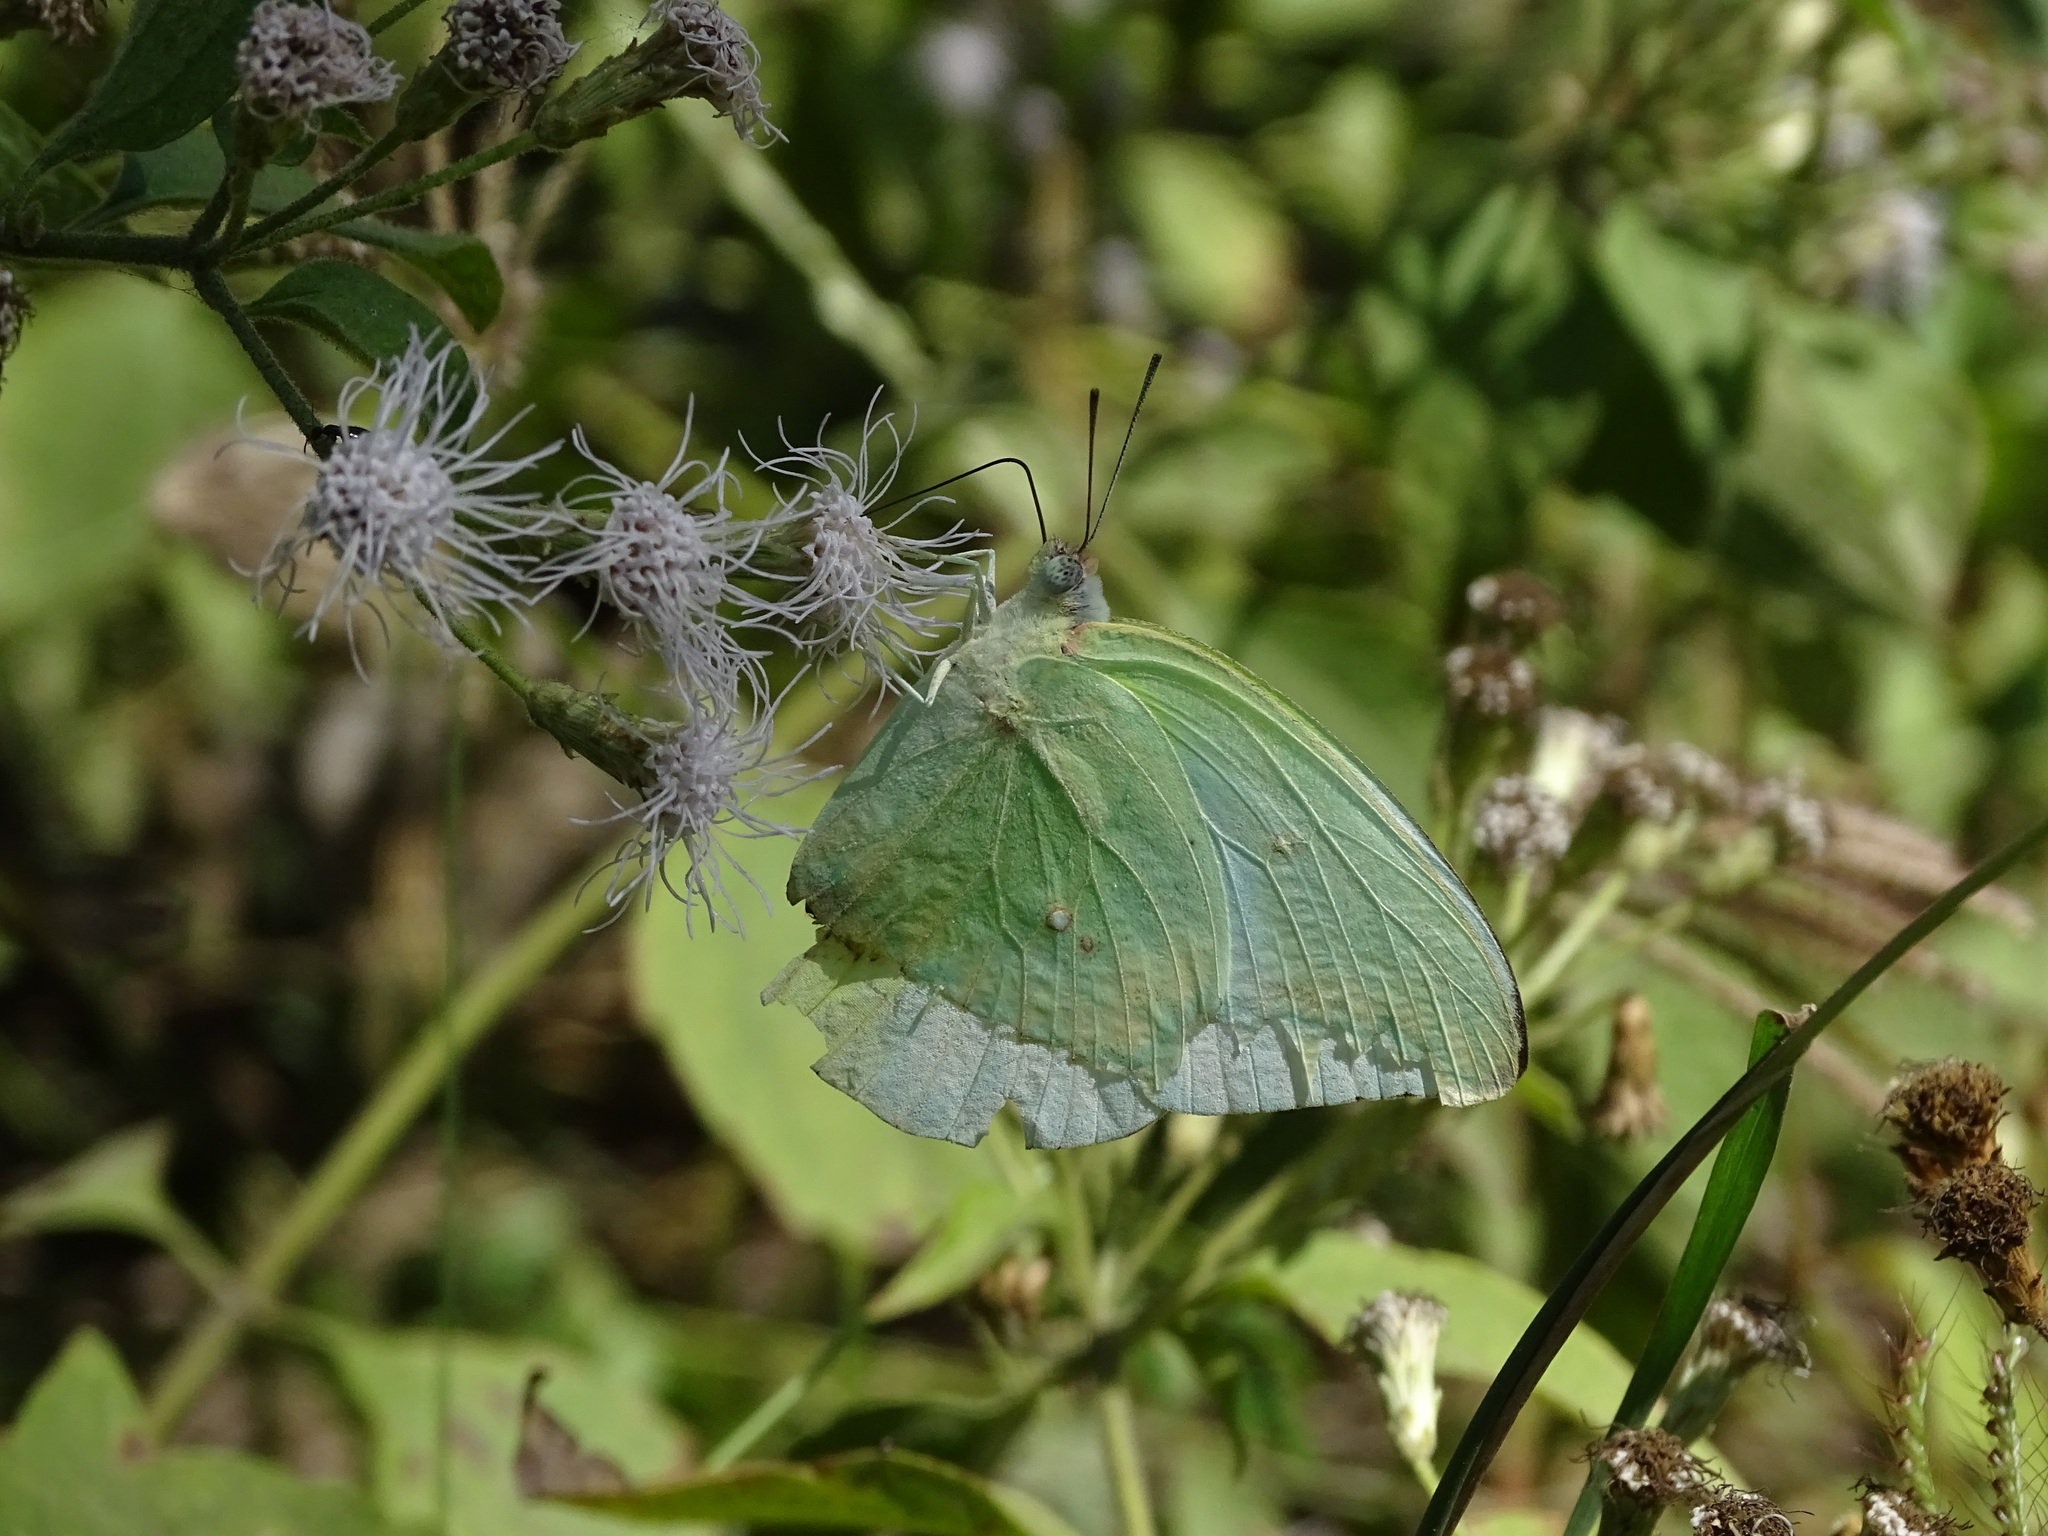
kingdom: Animalia
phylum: Arthropoda
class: Insecta
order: Lepidoptera
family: Pieridae
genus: Catopsilia
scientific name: Catopsilia pomona
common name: Common emigrant
